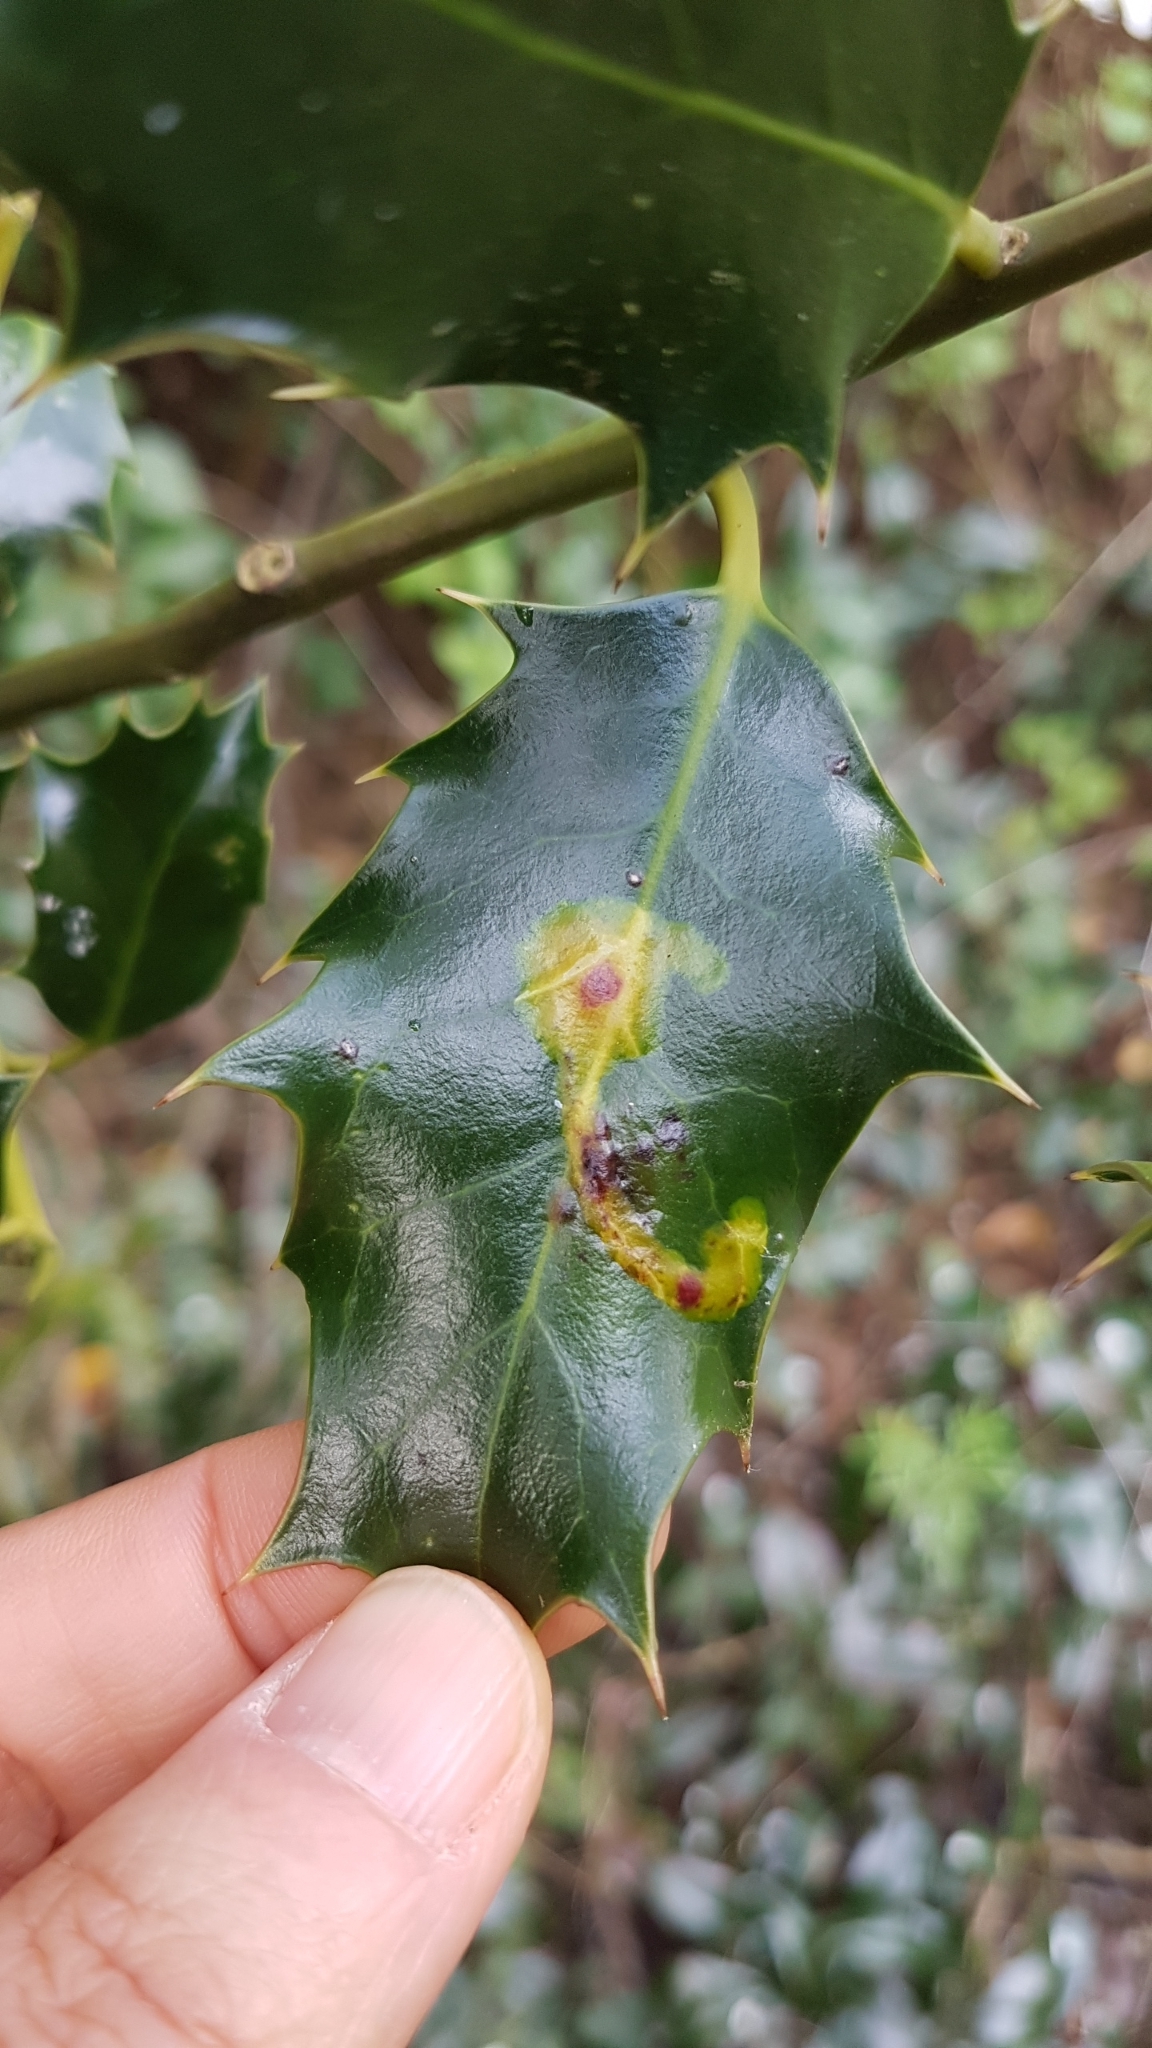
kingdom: Animalia
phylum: Arthropoda
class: Insecta
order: Diptera
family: Agromyzidae
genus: Phytomyza
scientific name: Phytomyza ilicis
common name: Holly leafminer
